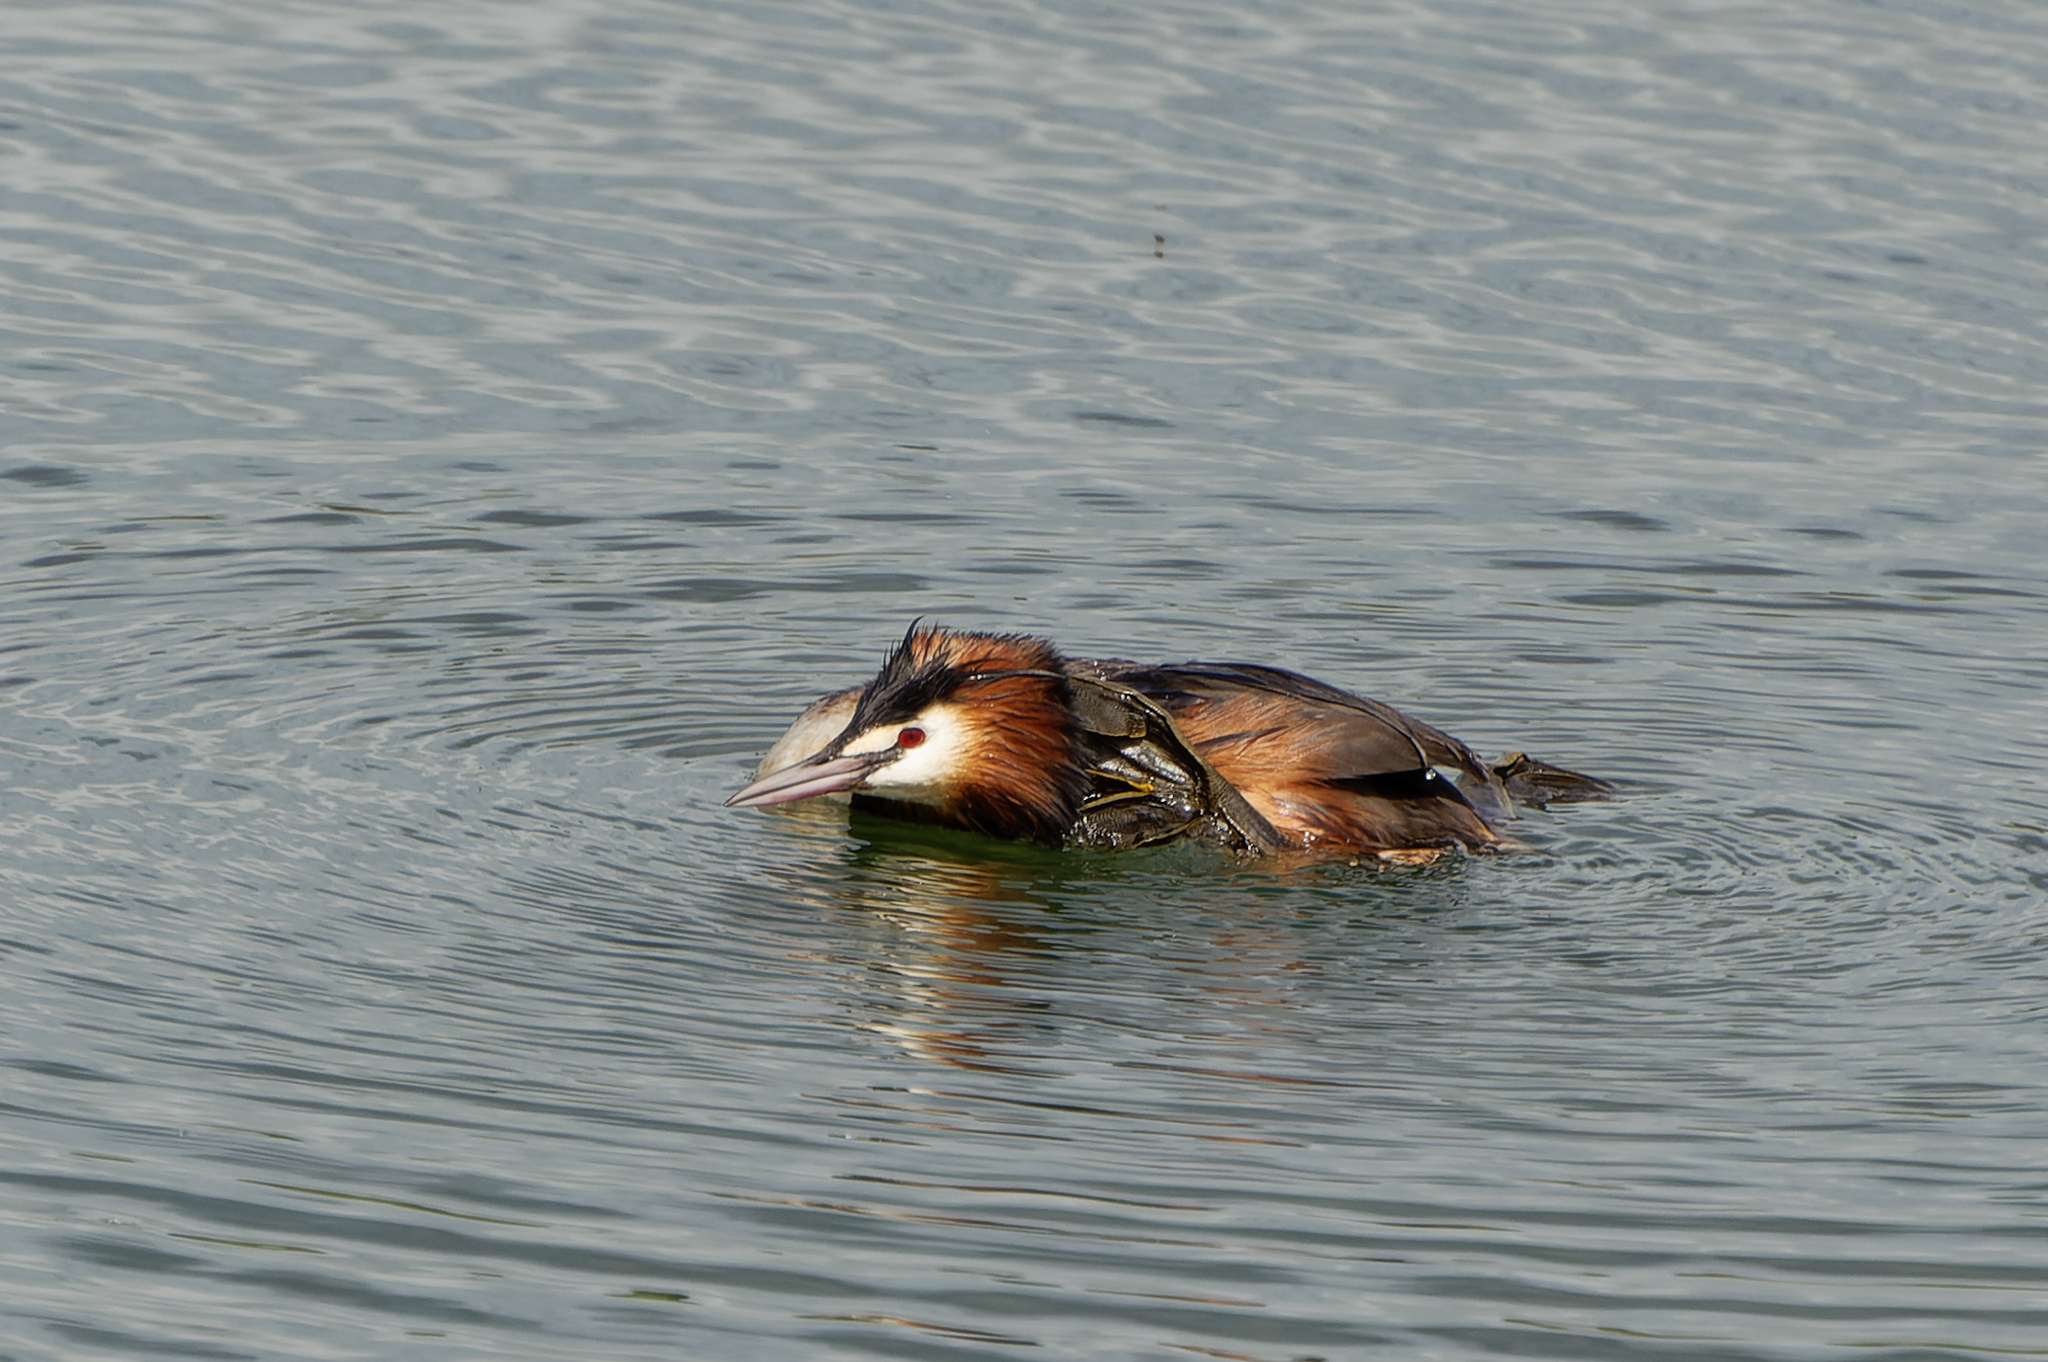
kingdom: Animalia
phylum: Chordata
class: Aves
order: Podicipediformes
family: Podicipedidae
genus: Podiceps
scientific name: Podiceps cristatus
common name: Great crested grebe
